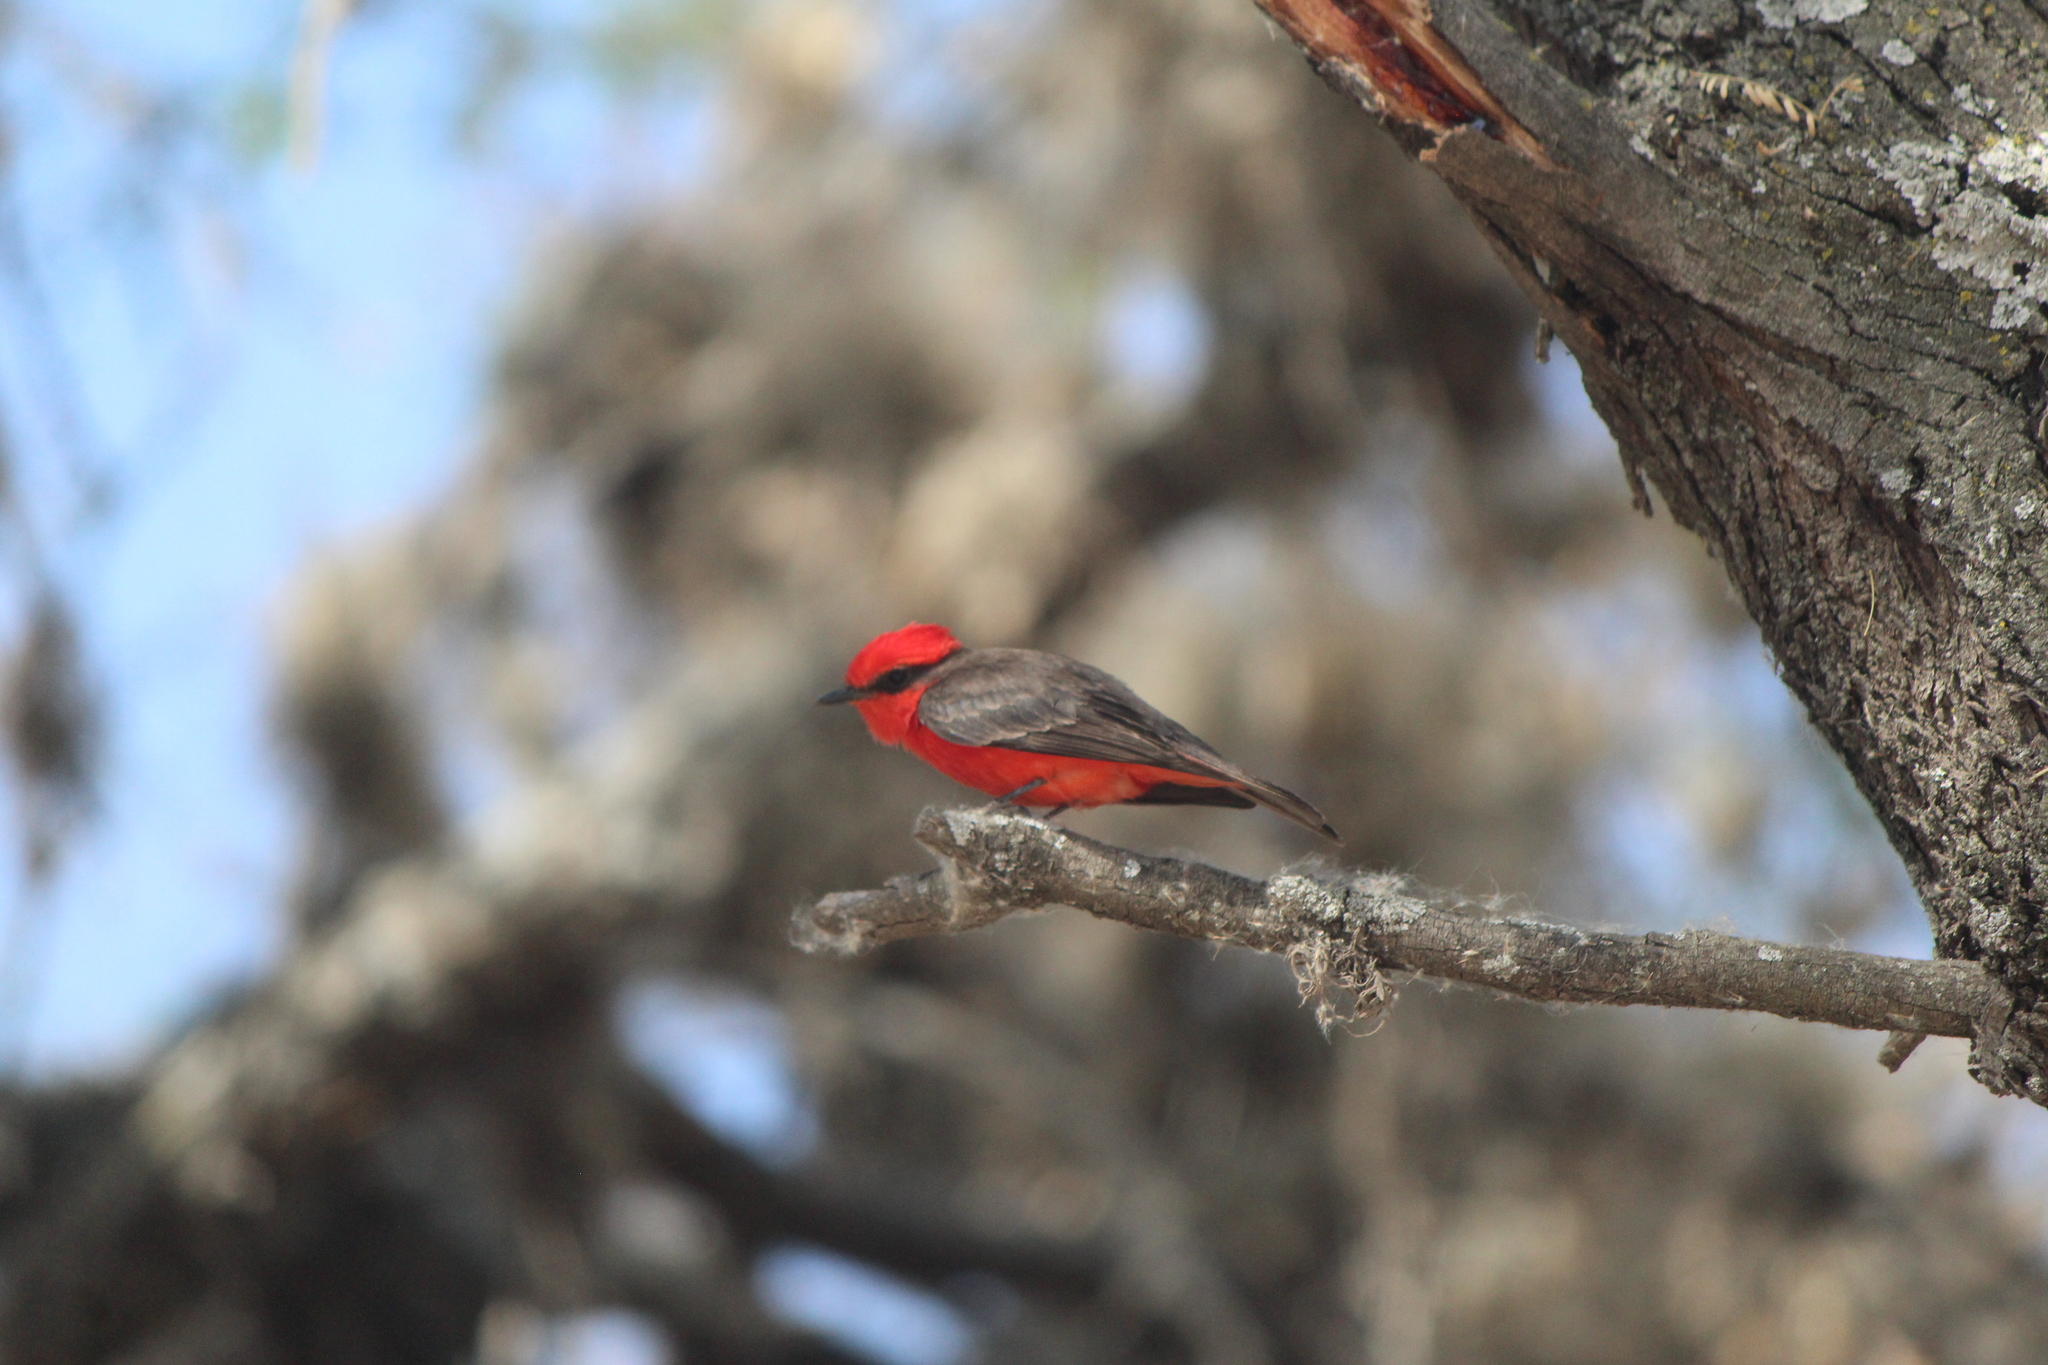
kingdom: Animalia
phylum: Chordata
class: Aves
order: Passeriformes
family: Tyrannidae
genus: Pyrocephalus
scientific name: Pyrocephalus rubinus
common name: Vermilion flycatcher
